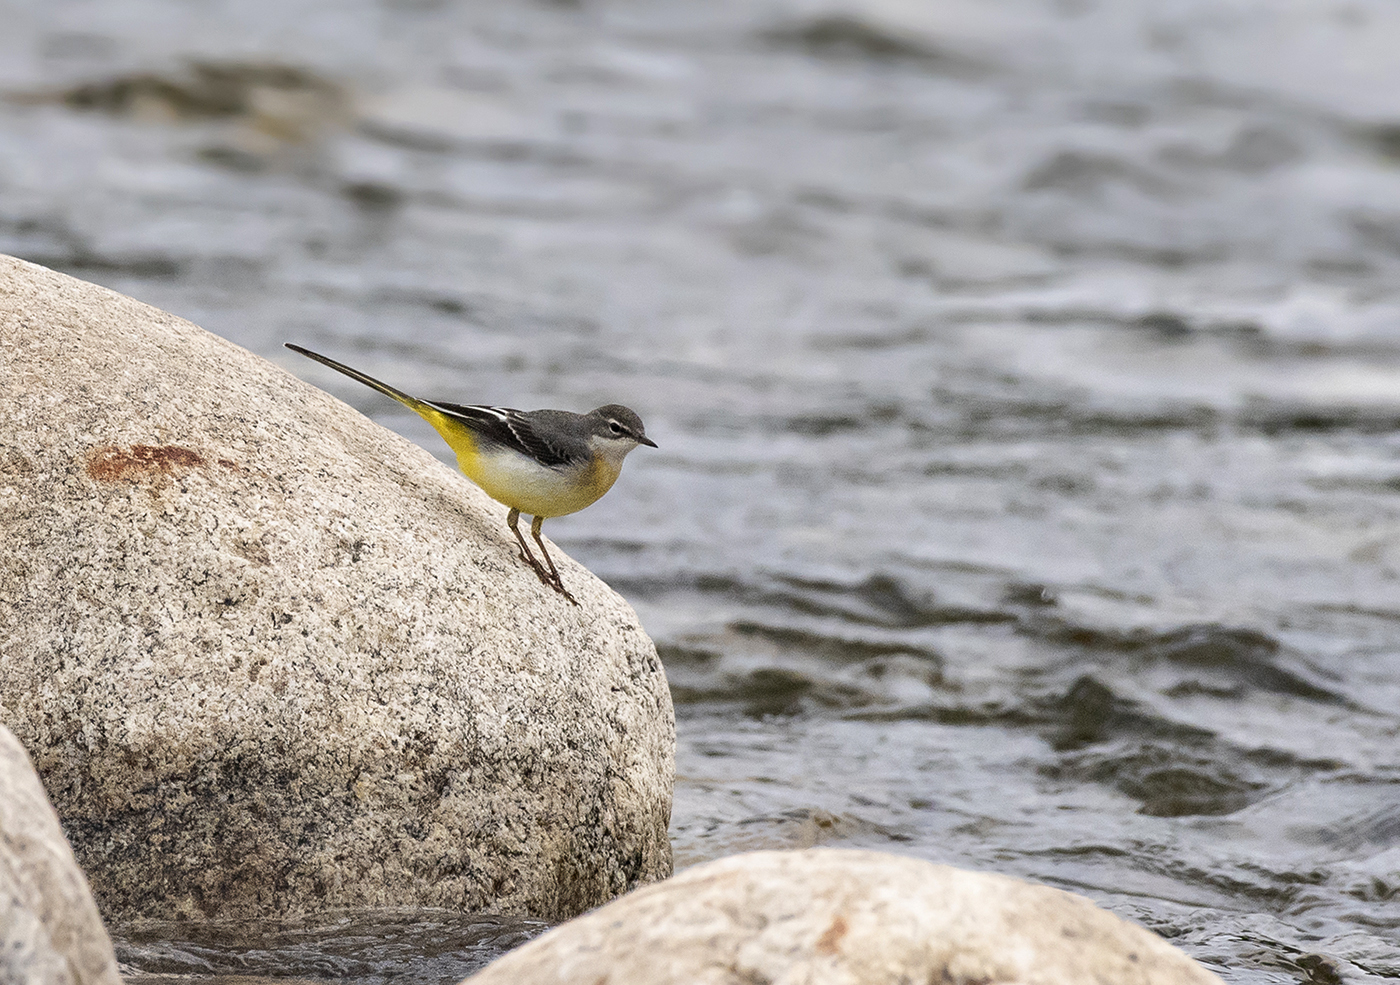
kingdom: Animalia
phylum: Chordata
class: Aves
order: Passeriformes
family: Motacillidae
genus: Motacilla
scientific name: Motacilla cinerea
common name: Grey wagtail
